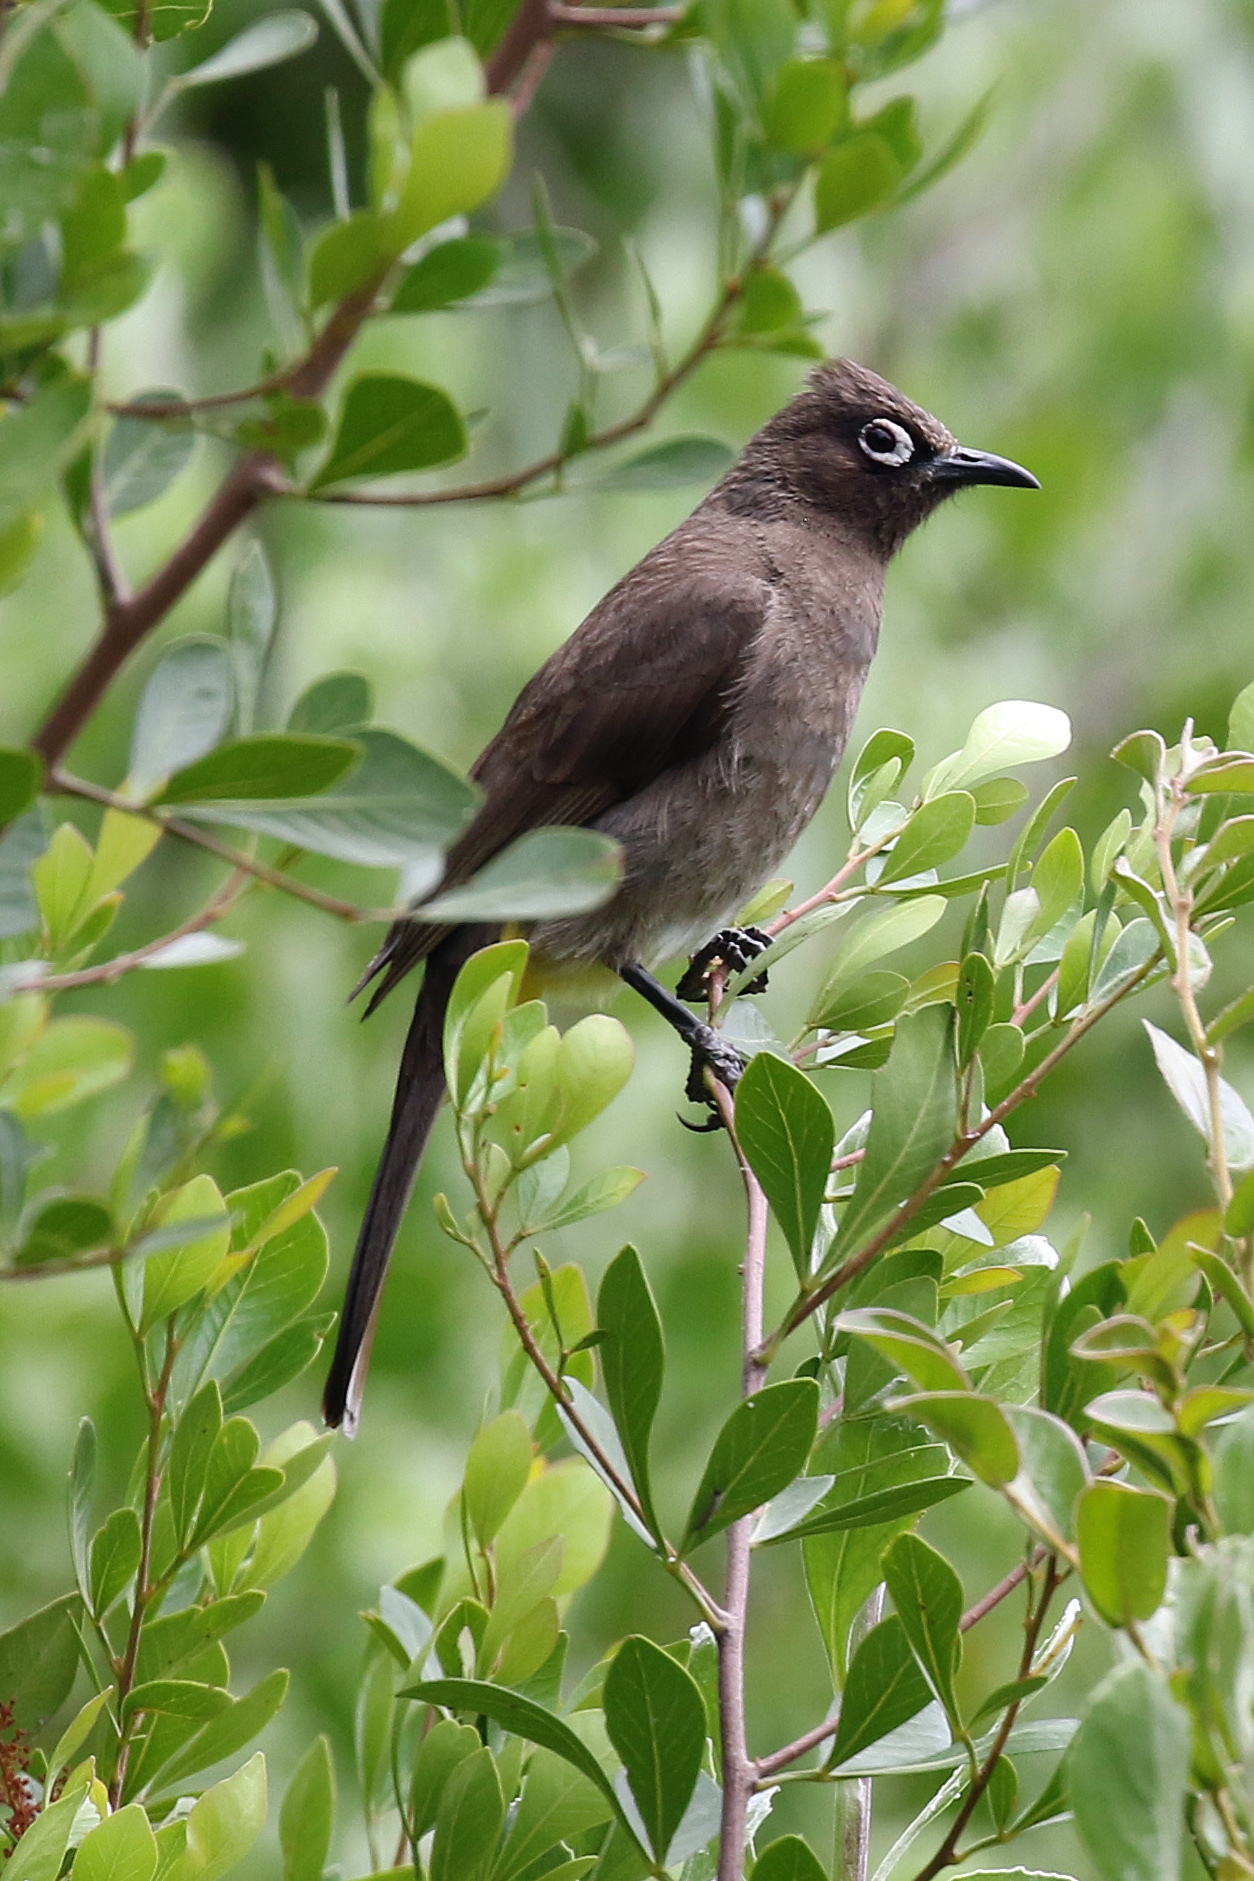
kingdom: Animalia
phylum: Chordata
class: Aves
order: Passeriformes
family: Pycnonotidae
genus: Pycnonotus
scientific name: Pycnonotus capensis
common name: Cape bulbul
